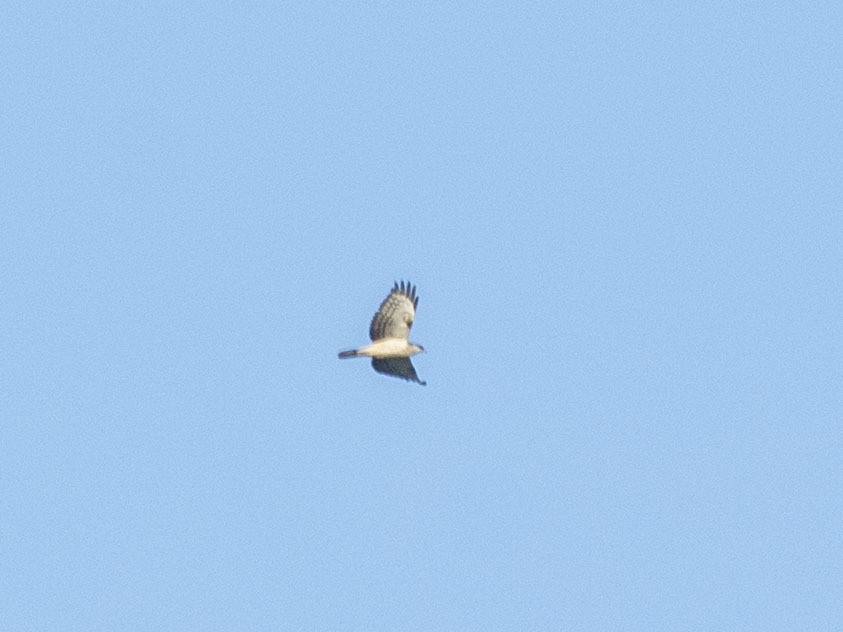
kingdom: Animalia
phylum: Chordata
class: Aves
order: Accipitriformes
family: Accipitridae
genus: Pernis
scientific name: Pernis apivorus
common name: European honey buzzard
